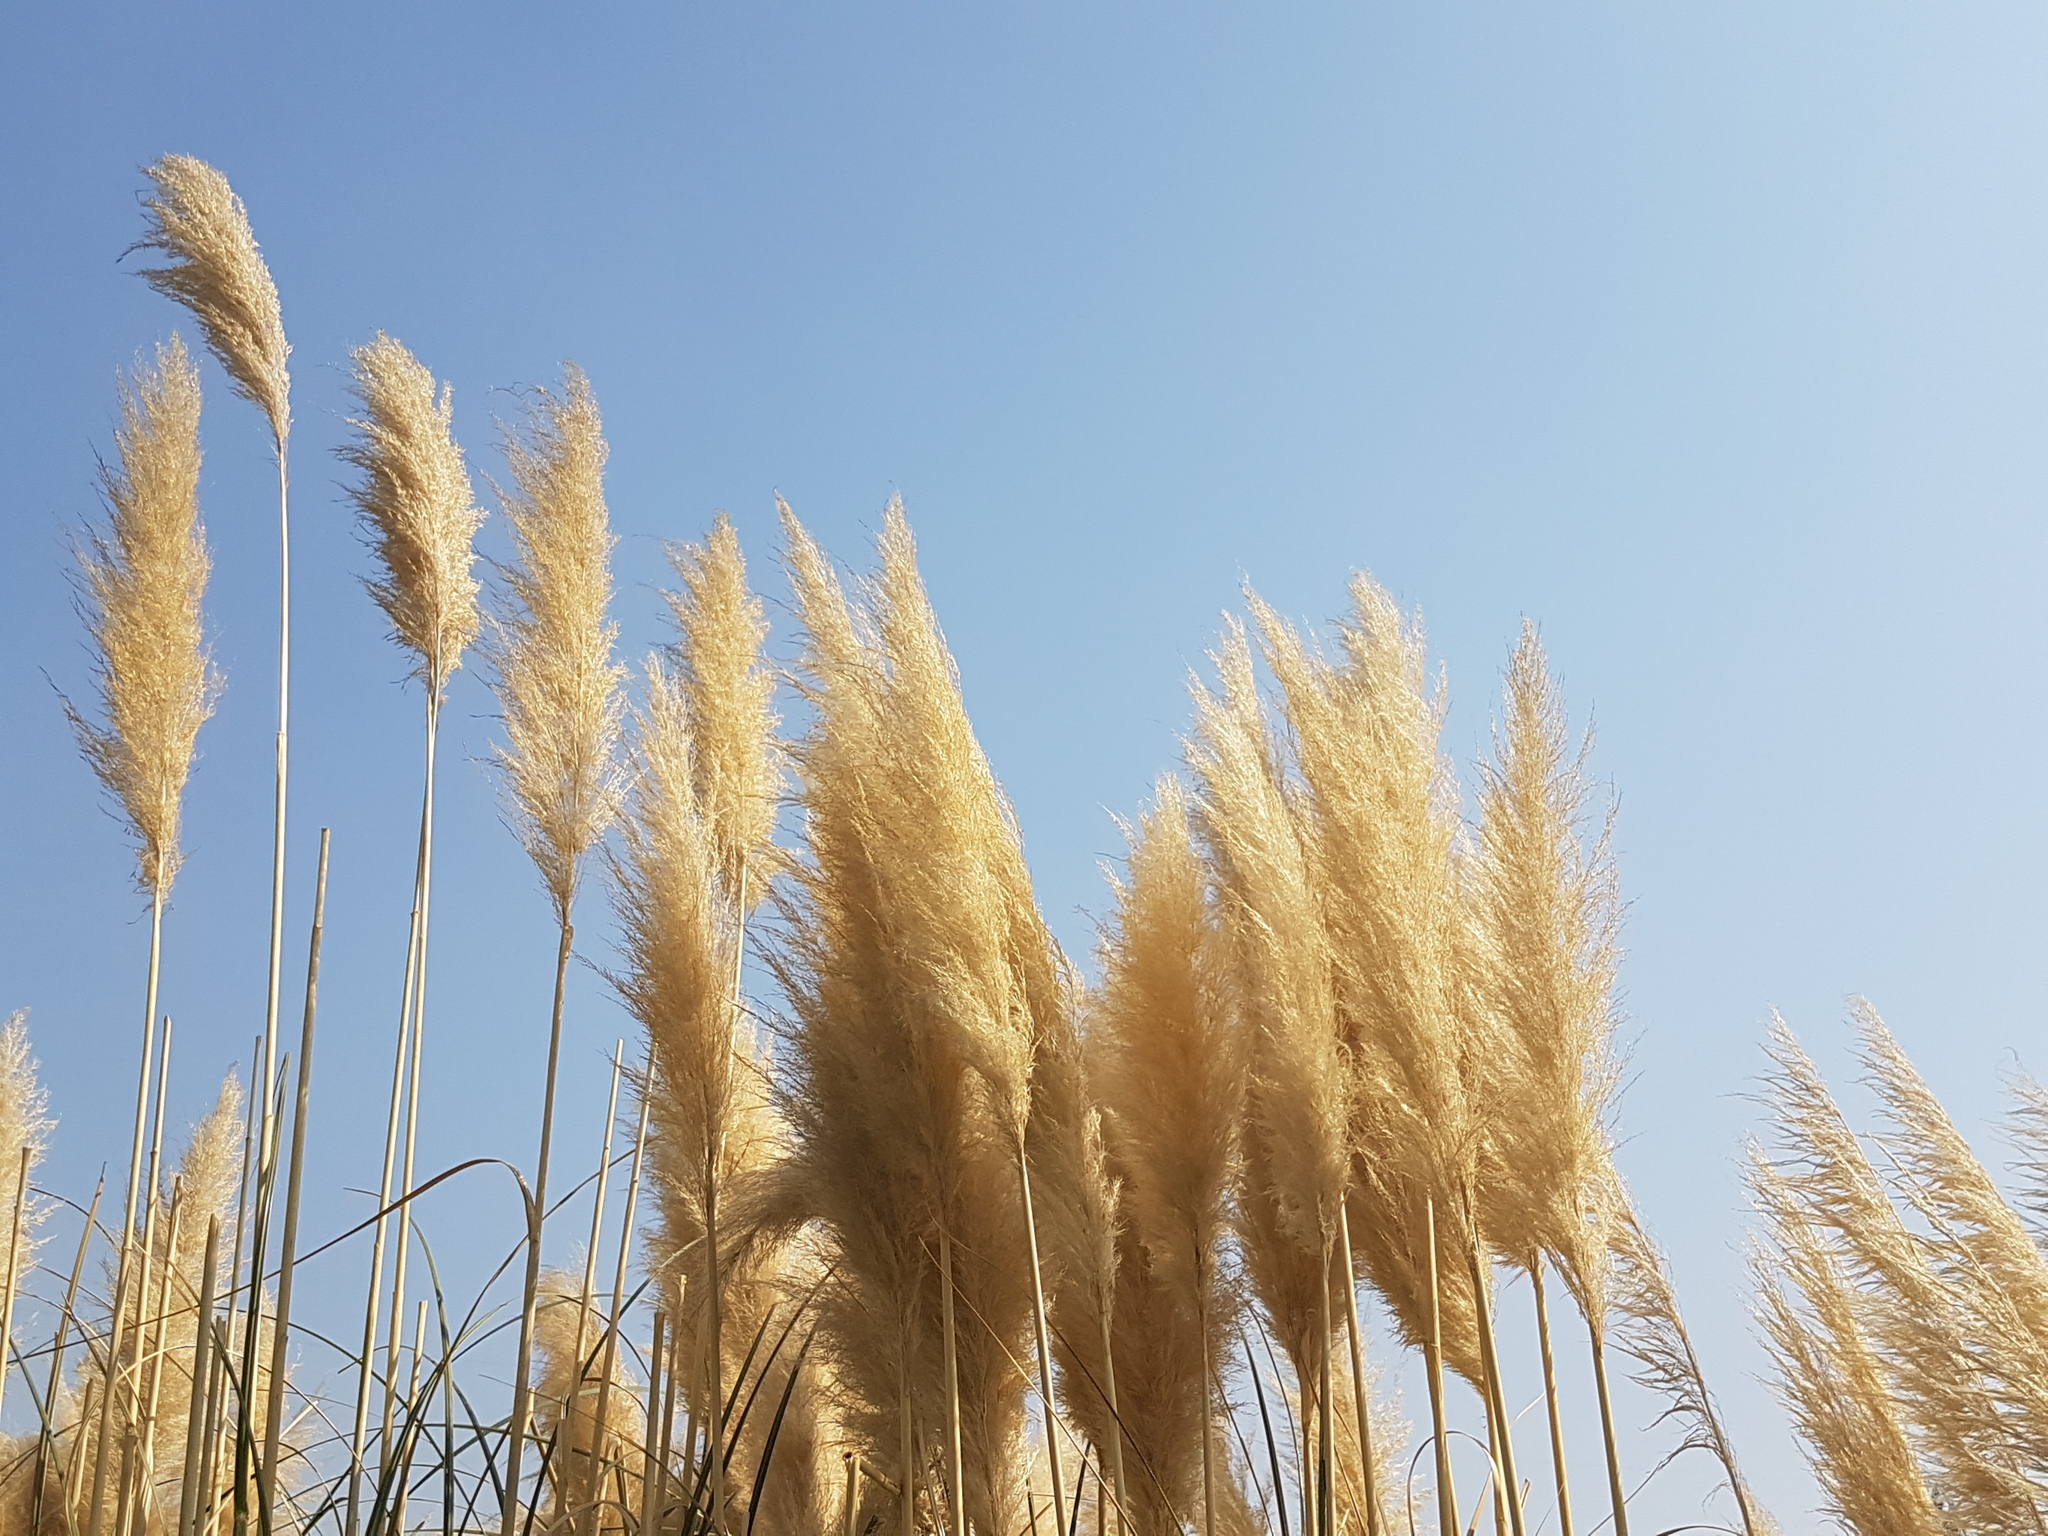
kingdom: Plantae
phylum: Tracheophyta
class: Liliopsida
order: Poales
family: Poaceae
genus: Cortaderia
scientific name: Cortaderia selloana
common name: Uruguayan pampas grass
